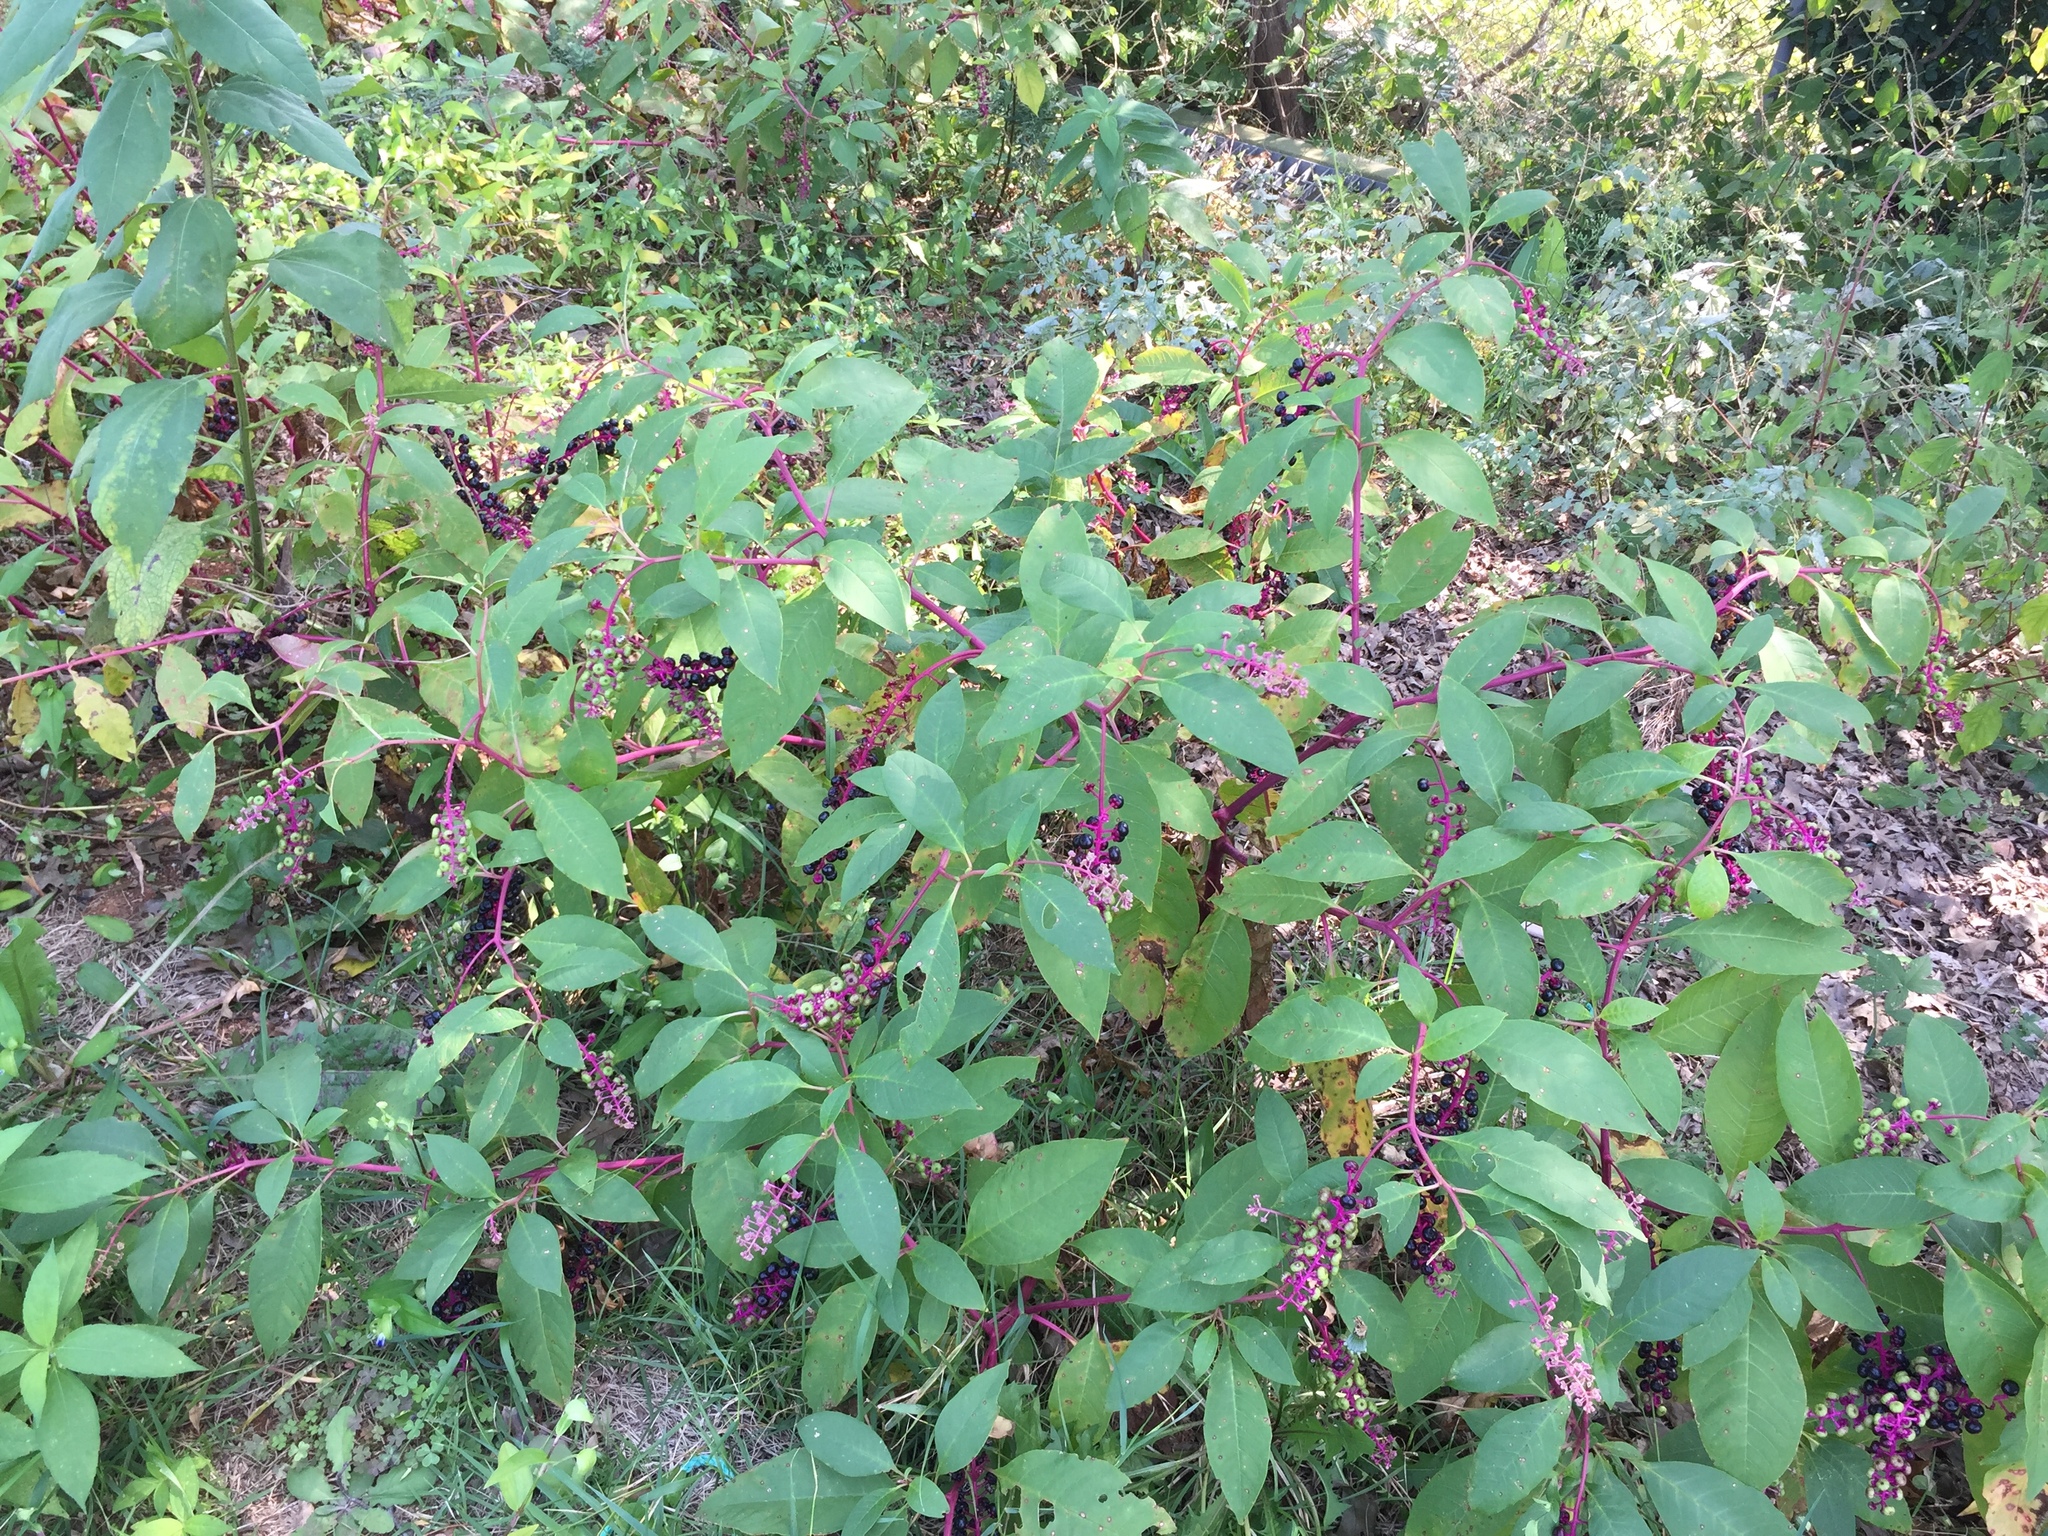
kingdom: Plantae
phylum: Tracheophyta
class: Magnoliopsida
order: Caryophyllales
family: Phytolaccaceae
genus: Phytolacca
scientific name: Phytolacca americana
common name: American pokeweed
